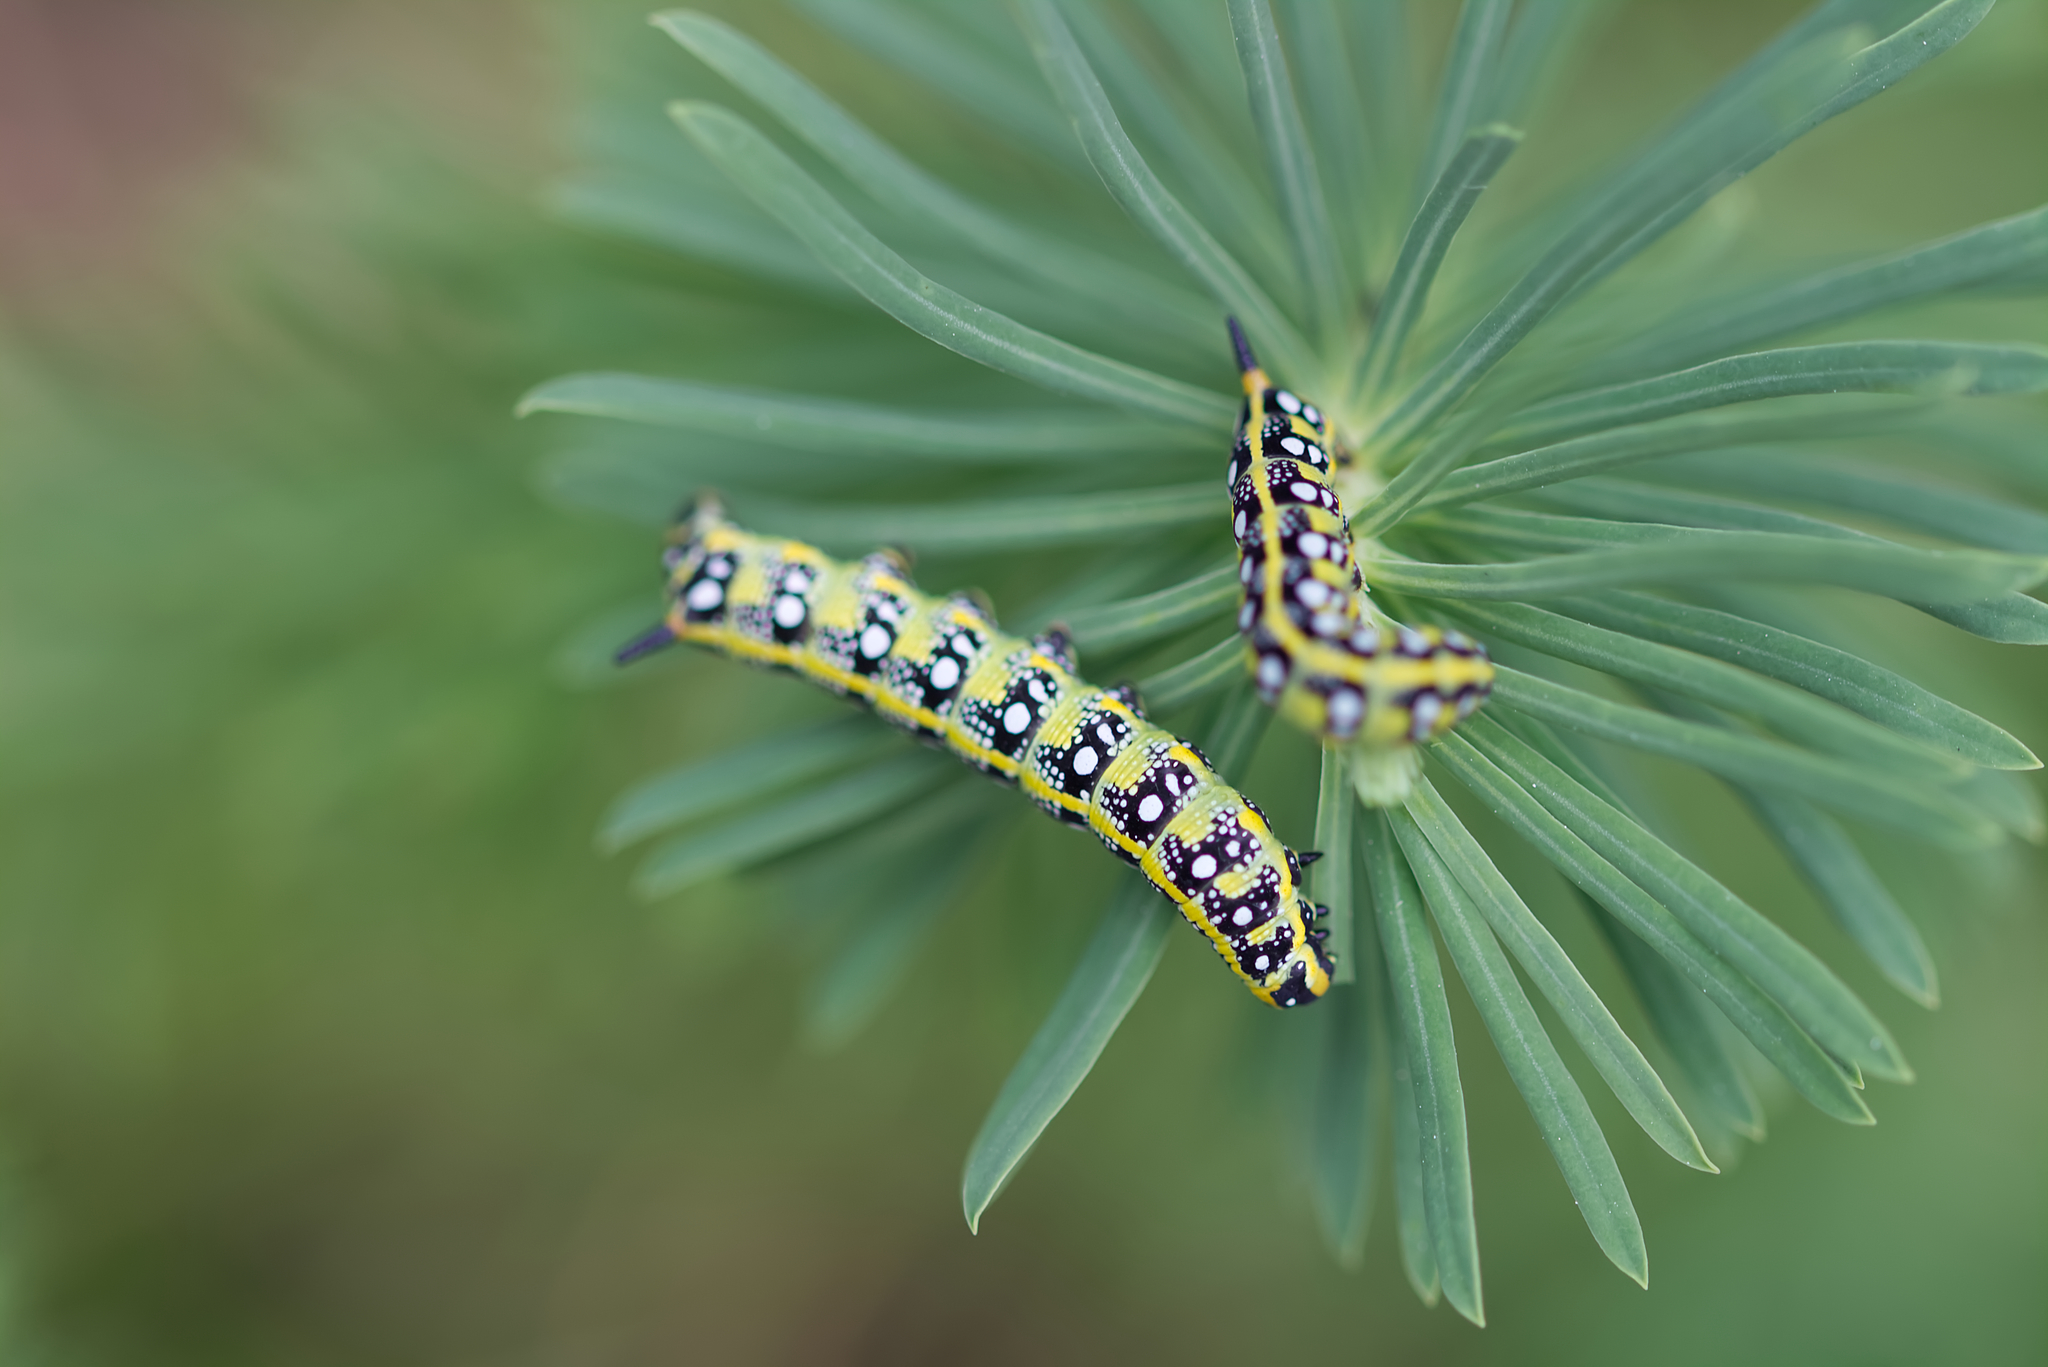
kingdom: Animalia
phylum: Arthropoda
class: Insecta
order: Lepidoptera
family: Sphingidae
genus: Hyles
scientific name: Hyles euphorbiae
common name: Spurge hawk-moth
